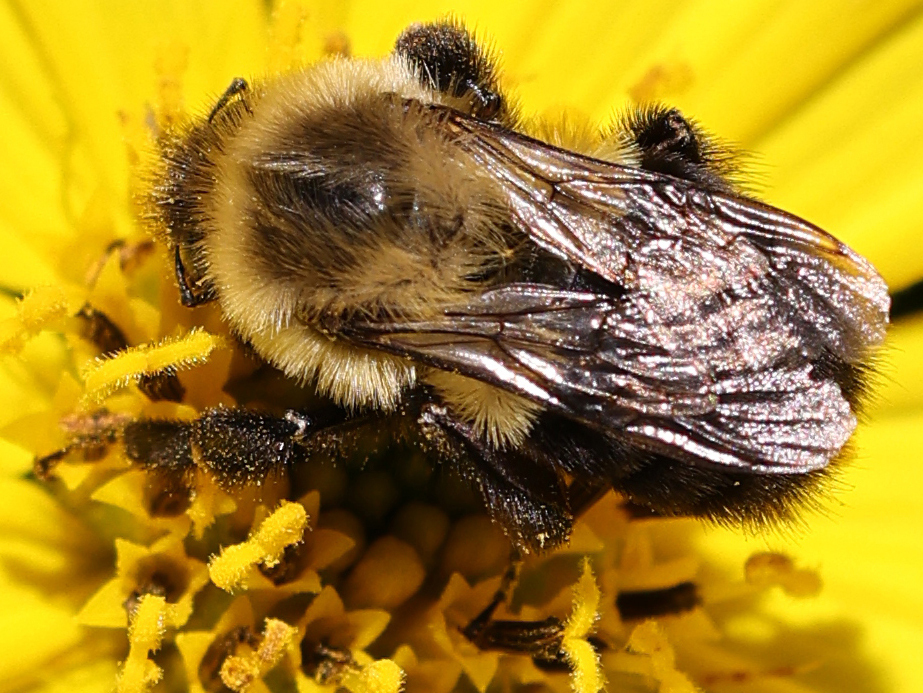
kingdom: Animalia
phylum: Arthropoda
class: Insecta
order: Hymenoptera
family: Apidae
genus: Bombus
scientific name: Bombus impatiens
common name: Common eastern bumble bee
